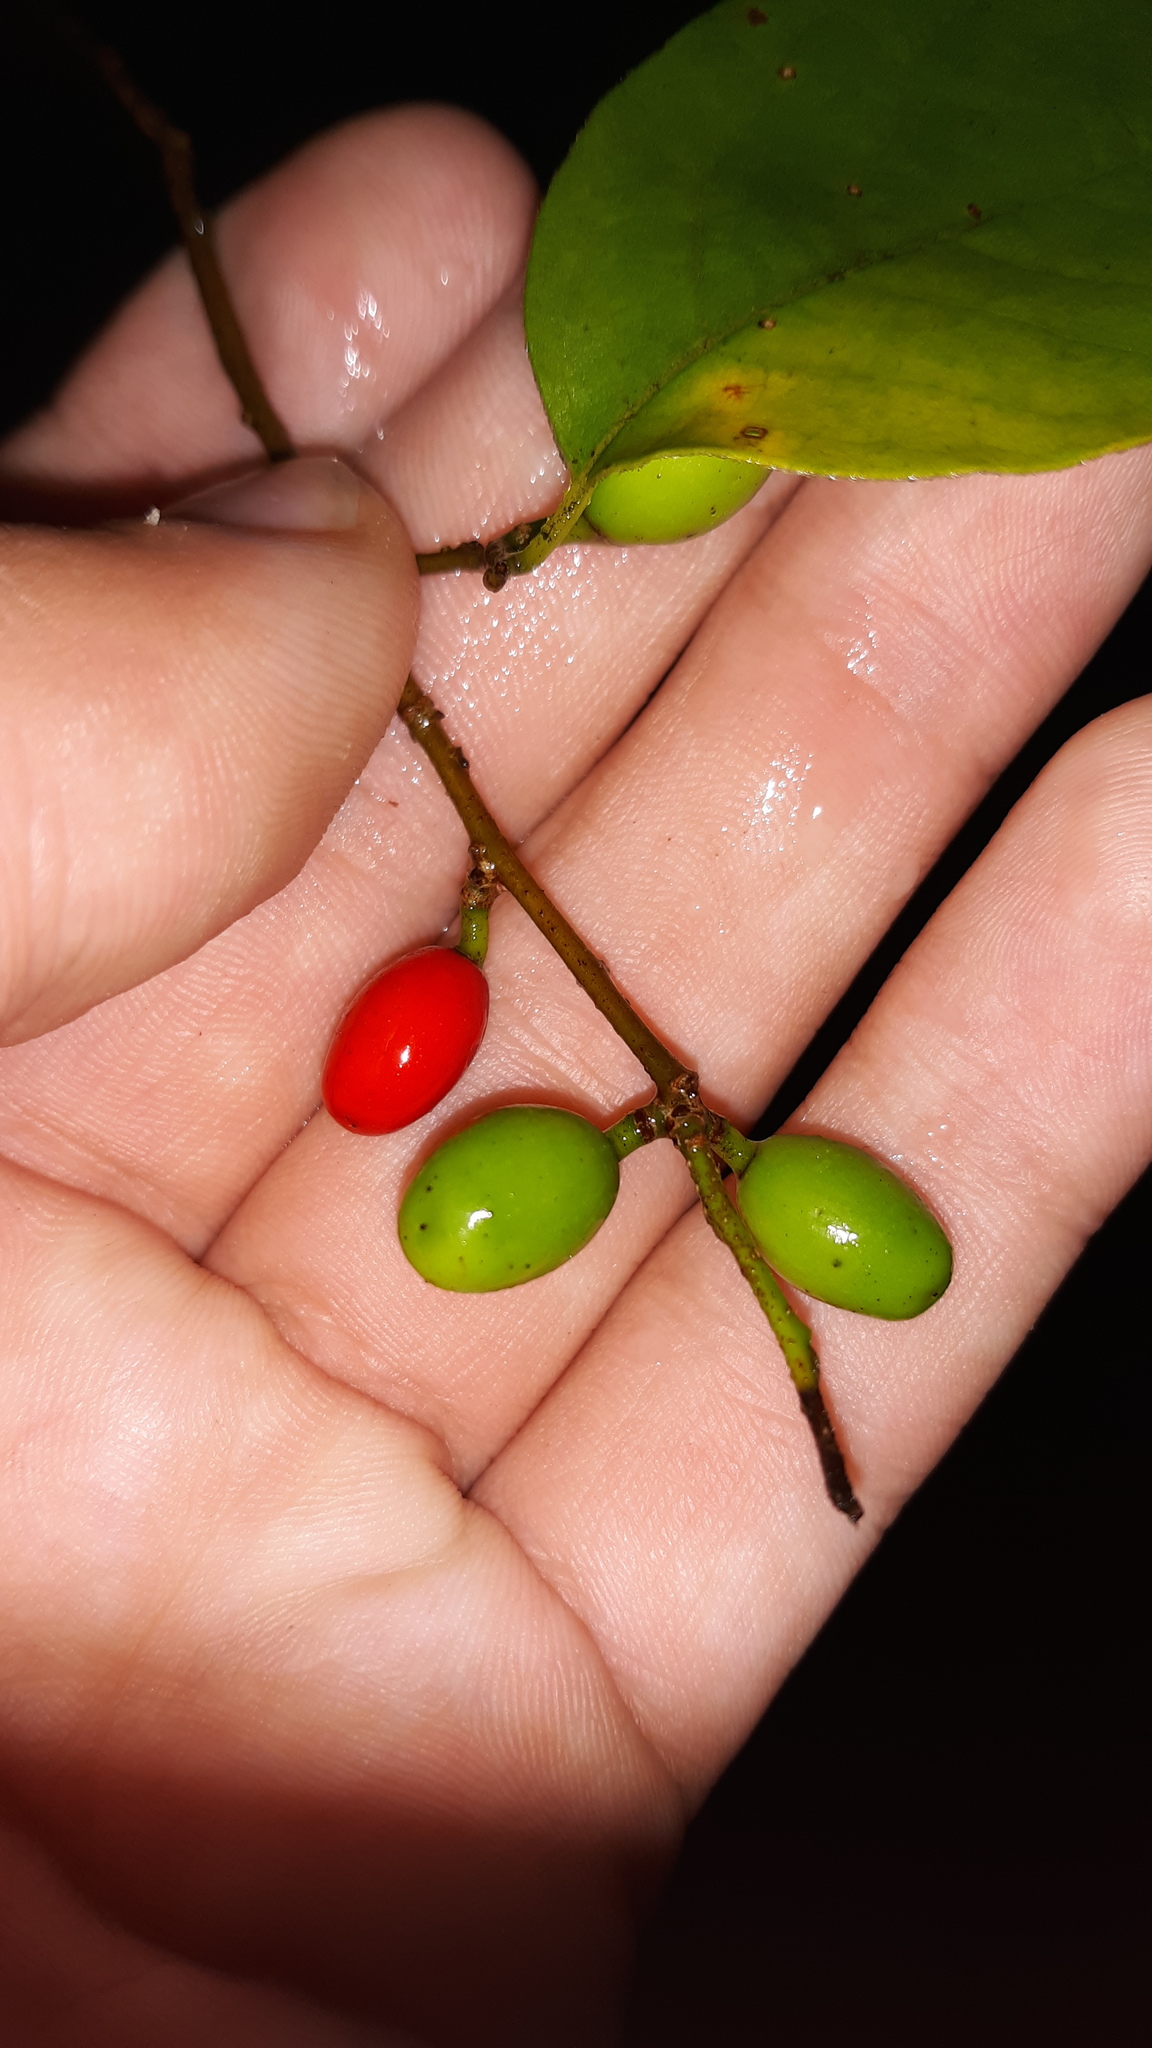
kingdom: Plantae
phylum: Tracheophyta
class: Magnoliopsida
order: Laurales
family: Lauraceae
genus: Lindera
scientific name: Lindera benzoin
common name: Spicebush
